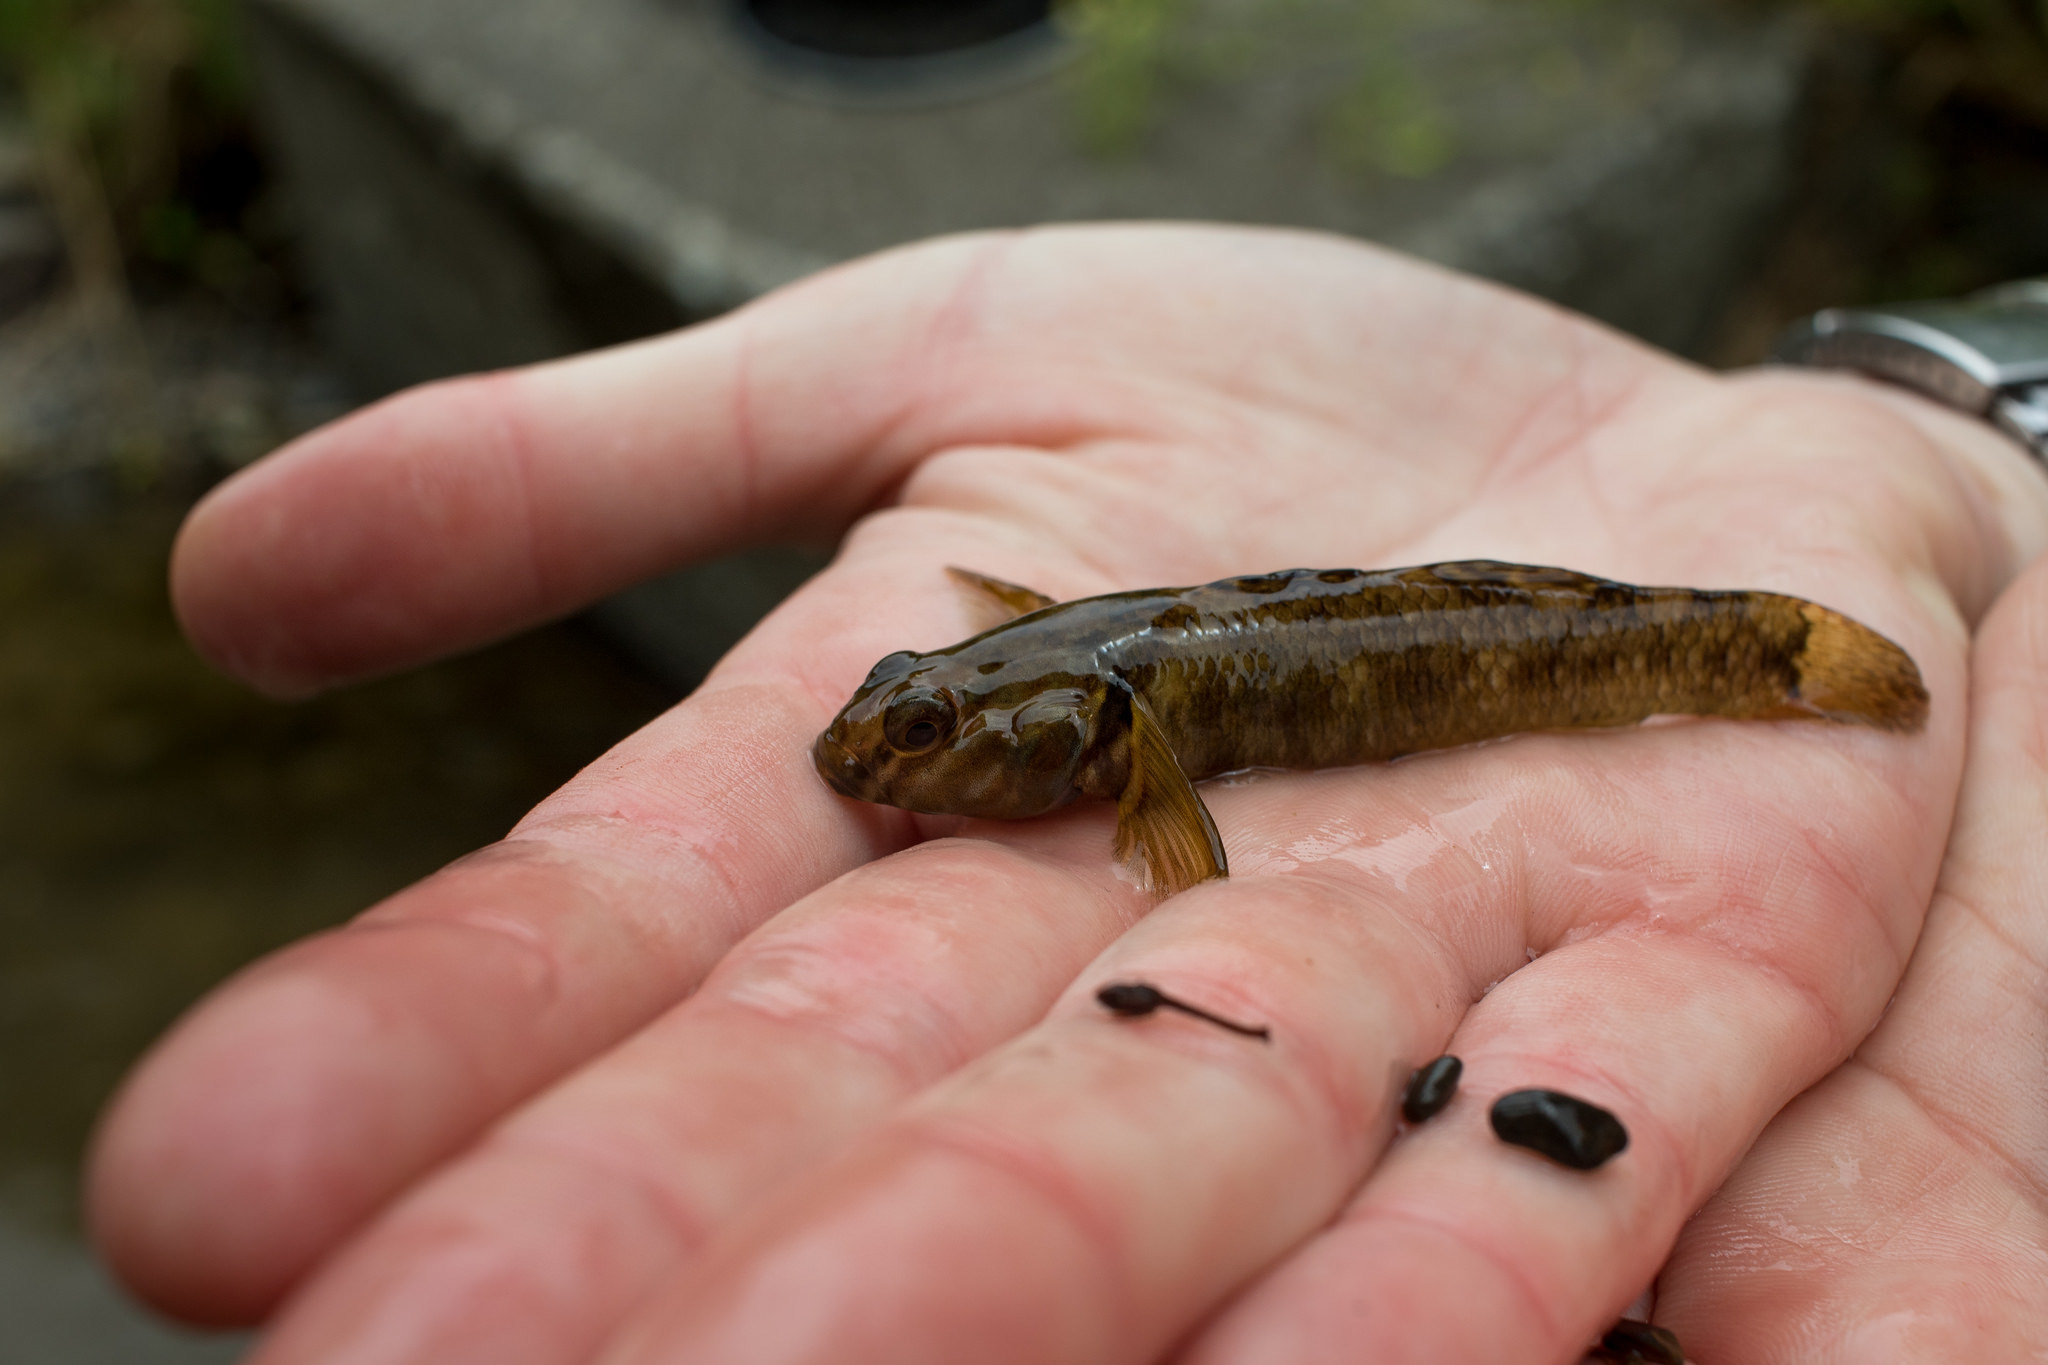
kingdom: Animalia
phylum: Chordata
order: Perciformes
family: Eleotridae
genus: Gobiomorphus
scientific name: Gobiomorphus huttoni
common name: Redfin bully
